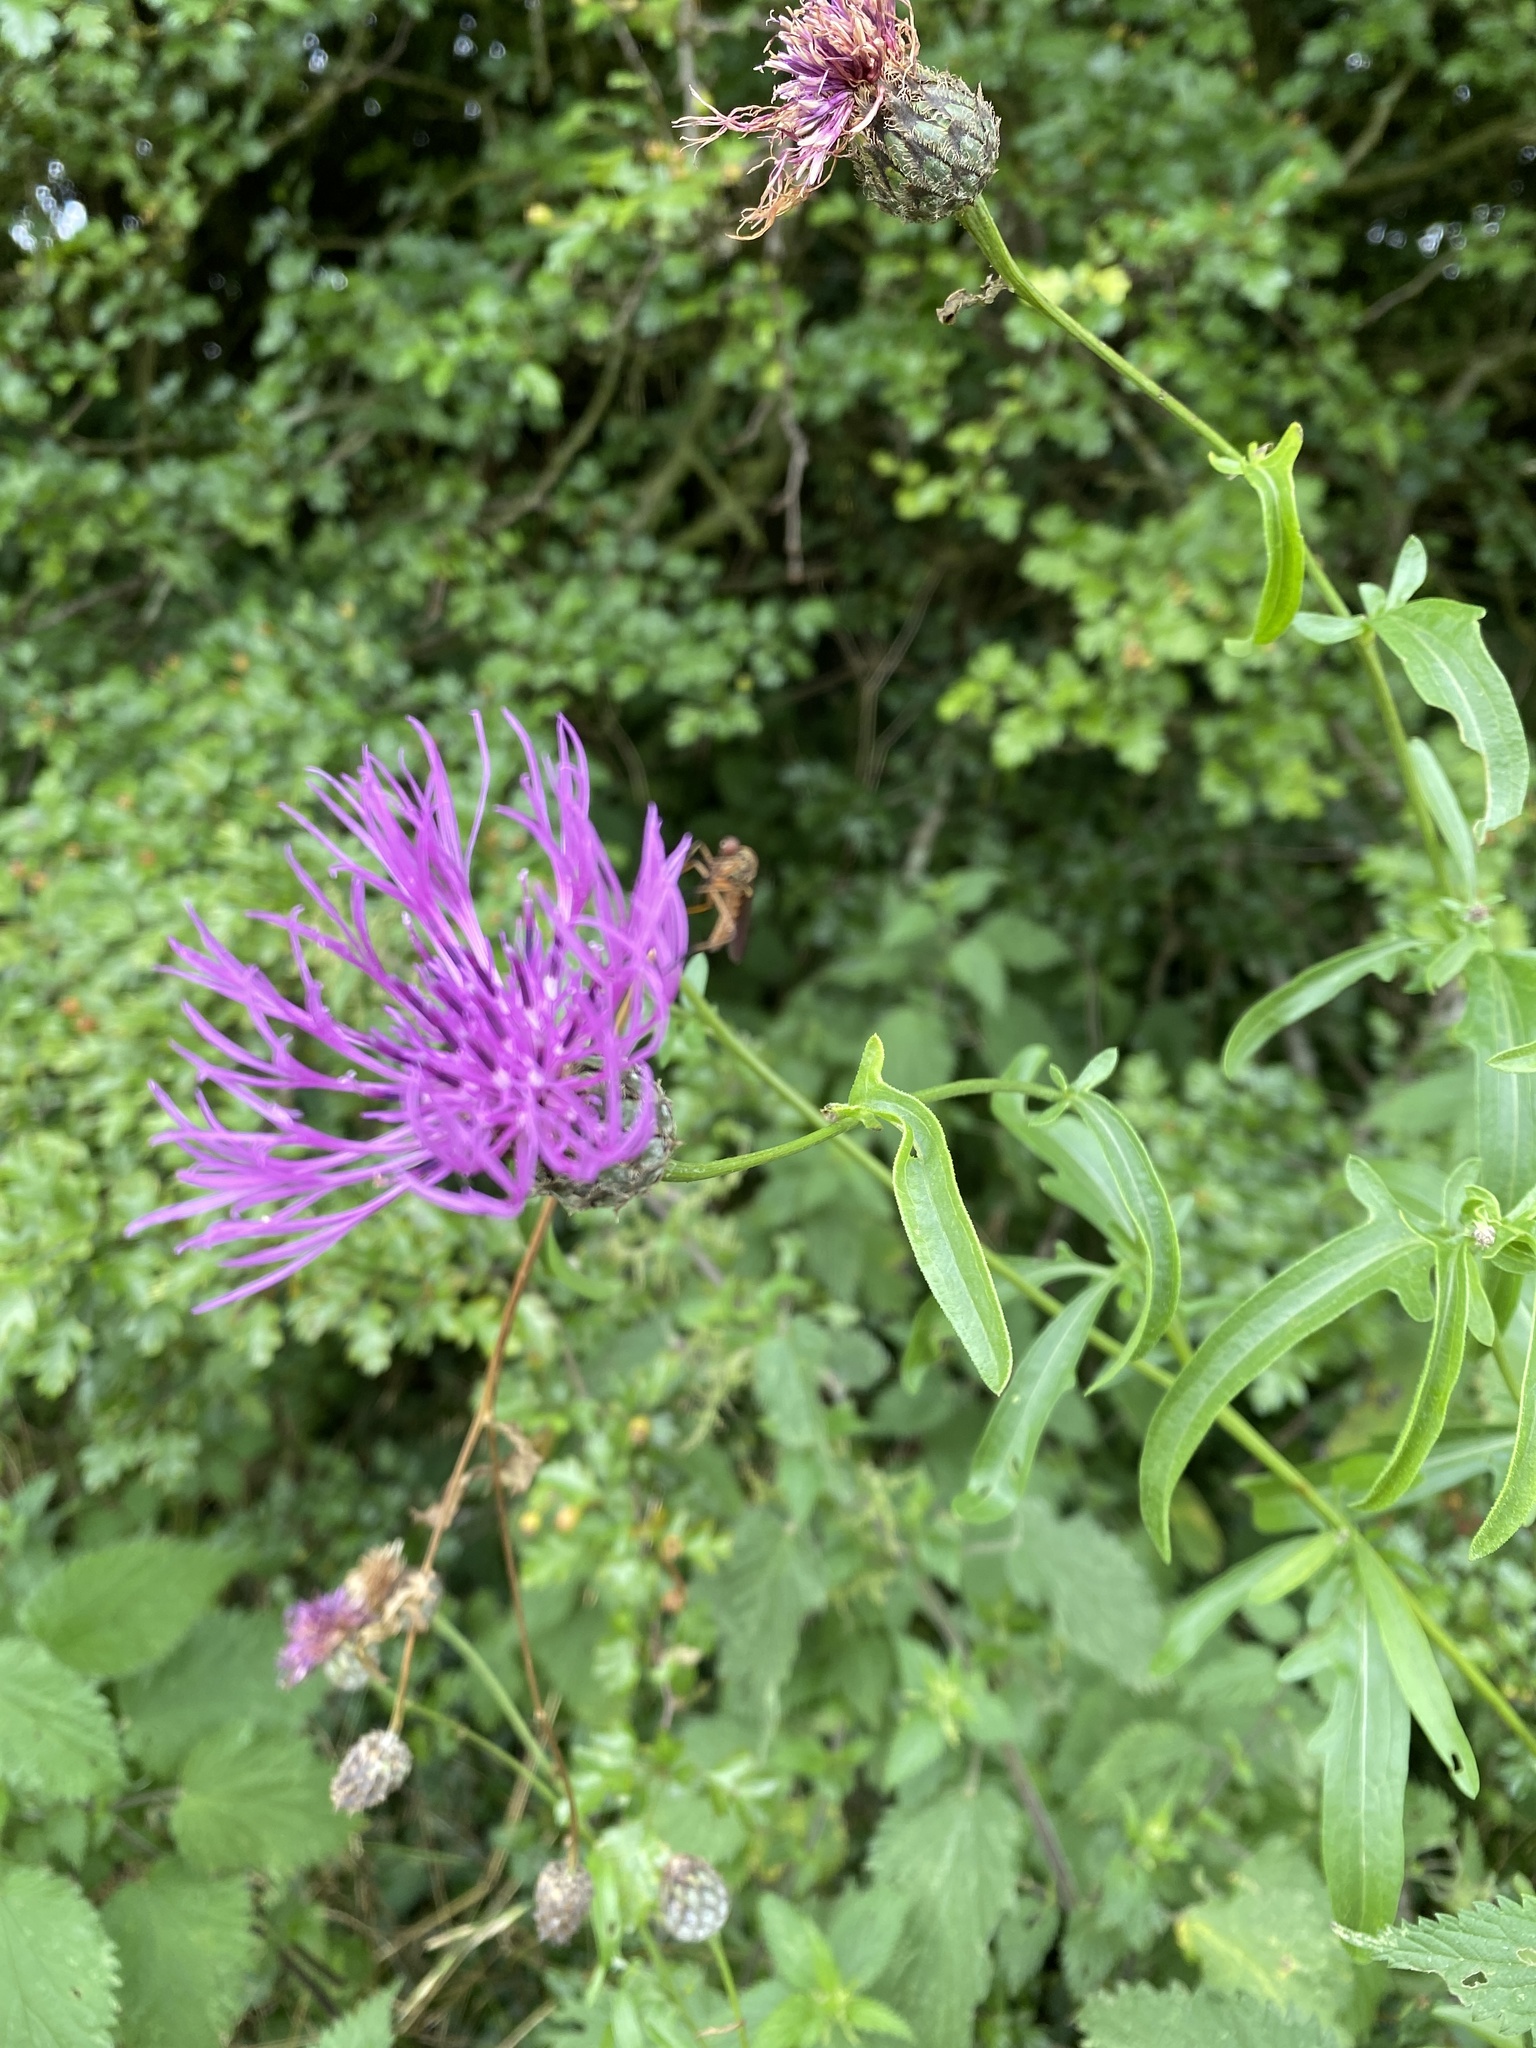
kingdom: Plantae
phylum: Tracheophyta
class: Magnoliopsida
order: Asterales
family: Asteraceae
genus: Centaurea
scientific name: Centaurea scabiosa
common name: Greater knapweed
